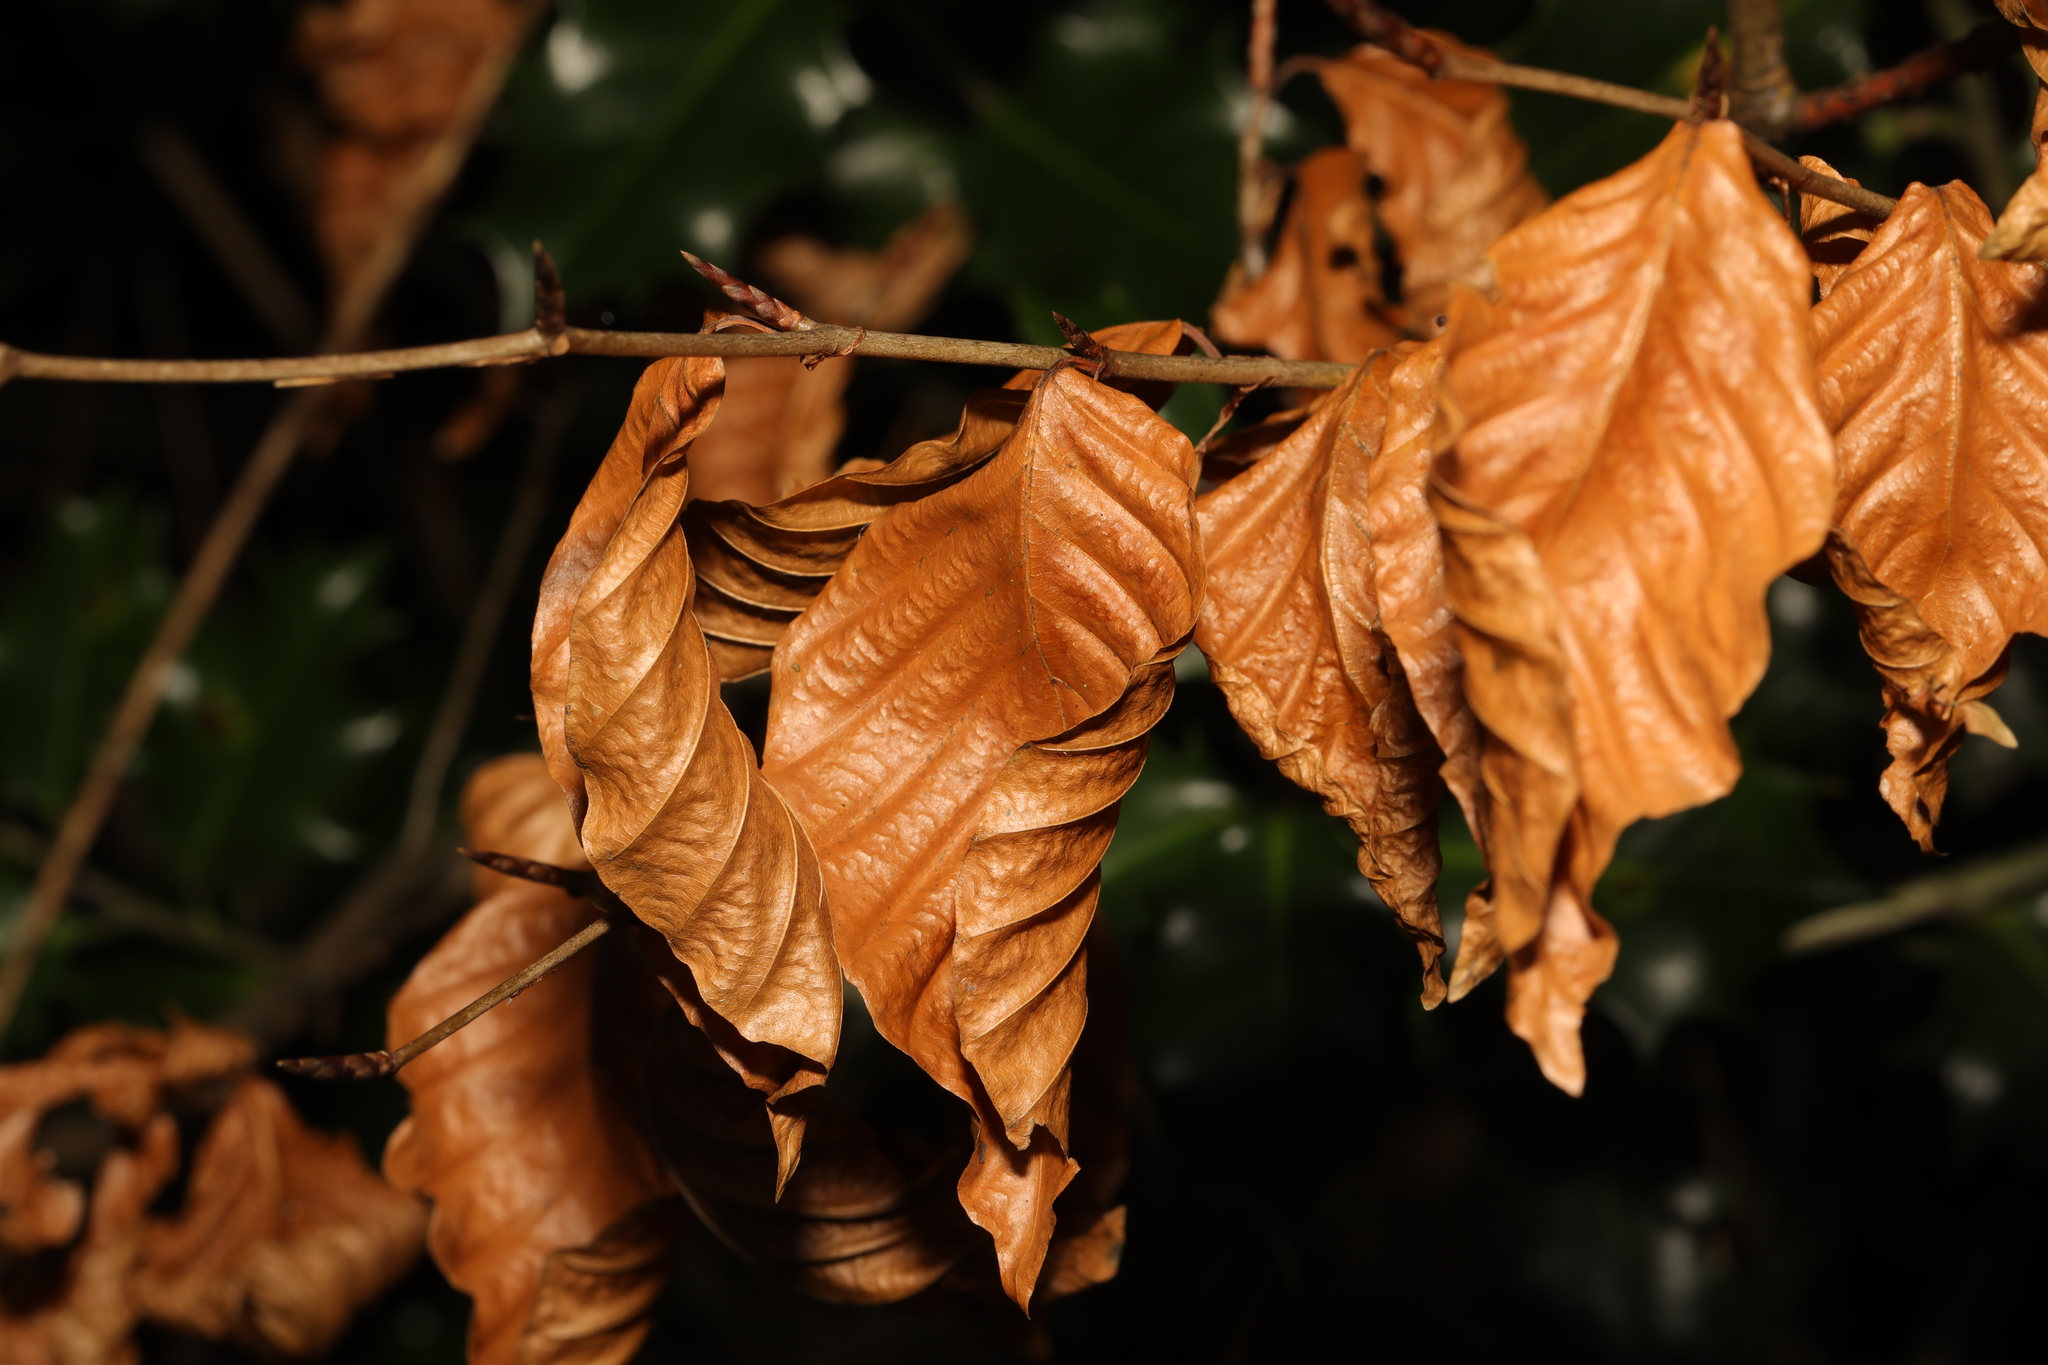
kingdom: Plantae
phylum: Tracheophyta
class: Magnoliopsida
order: Fagales
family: Fagaceae
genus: Fagus
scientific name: Fagus sylvatica
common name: Beech
